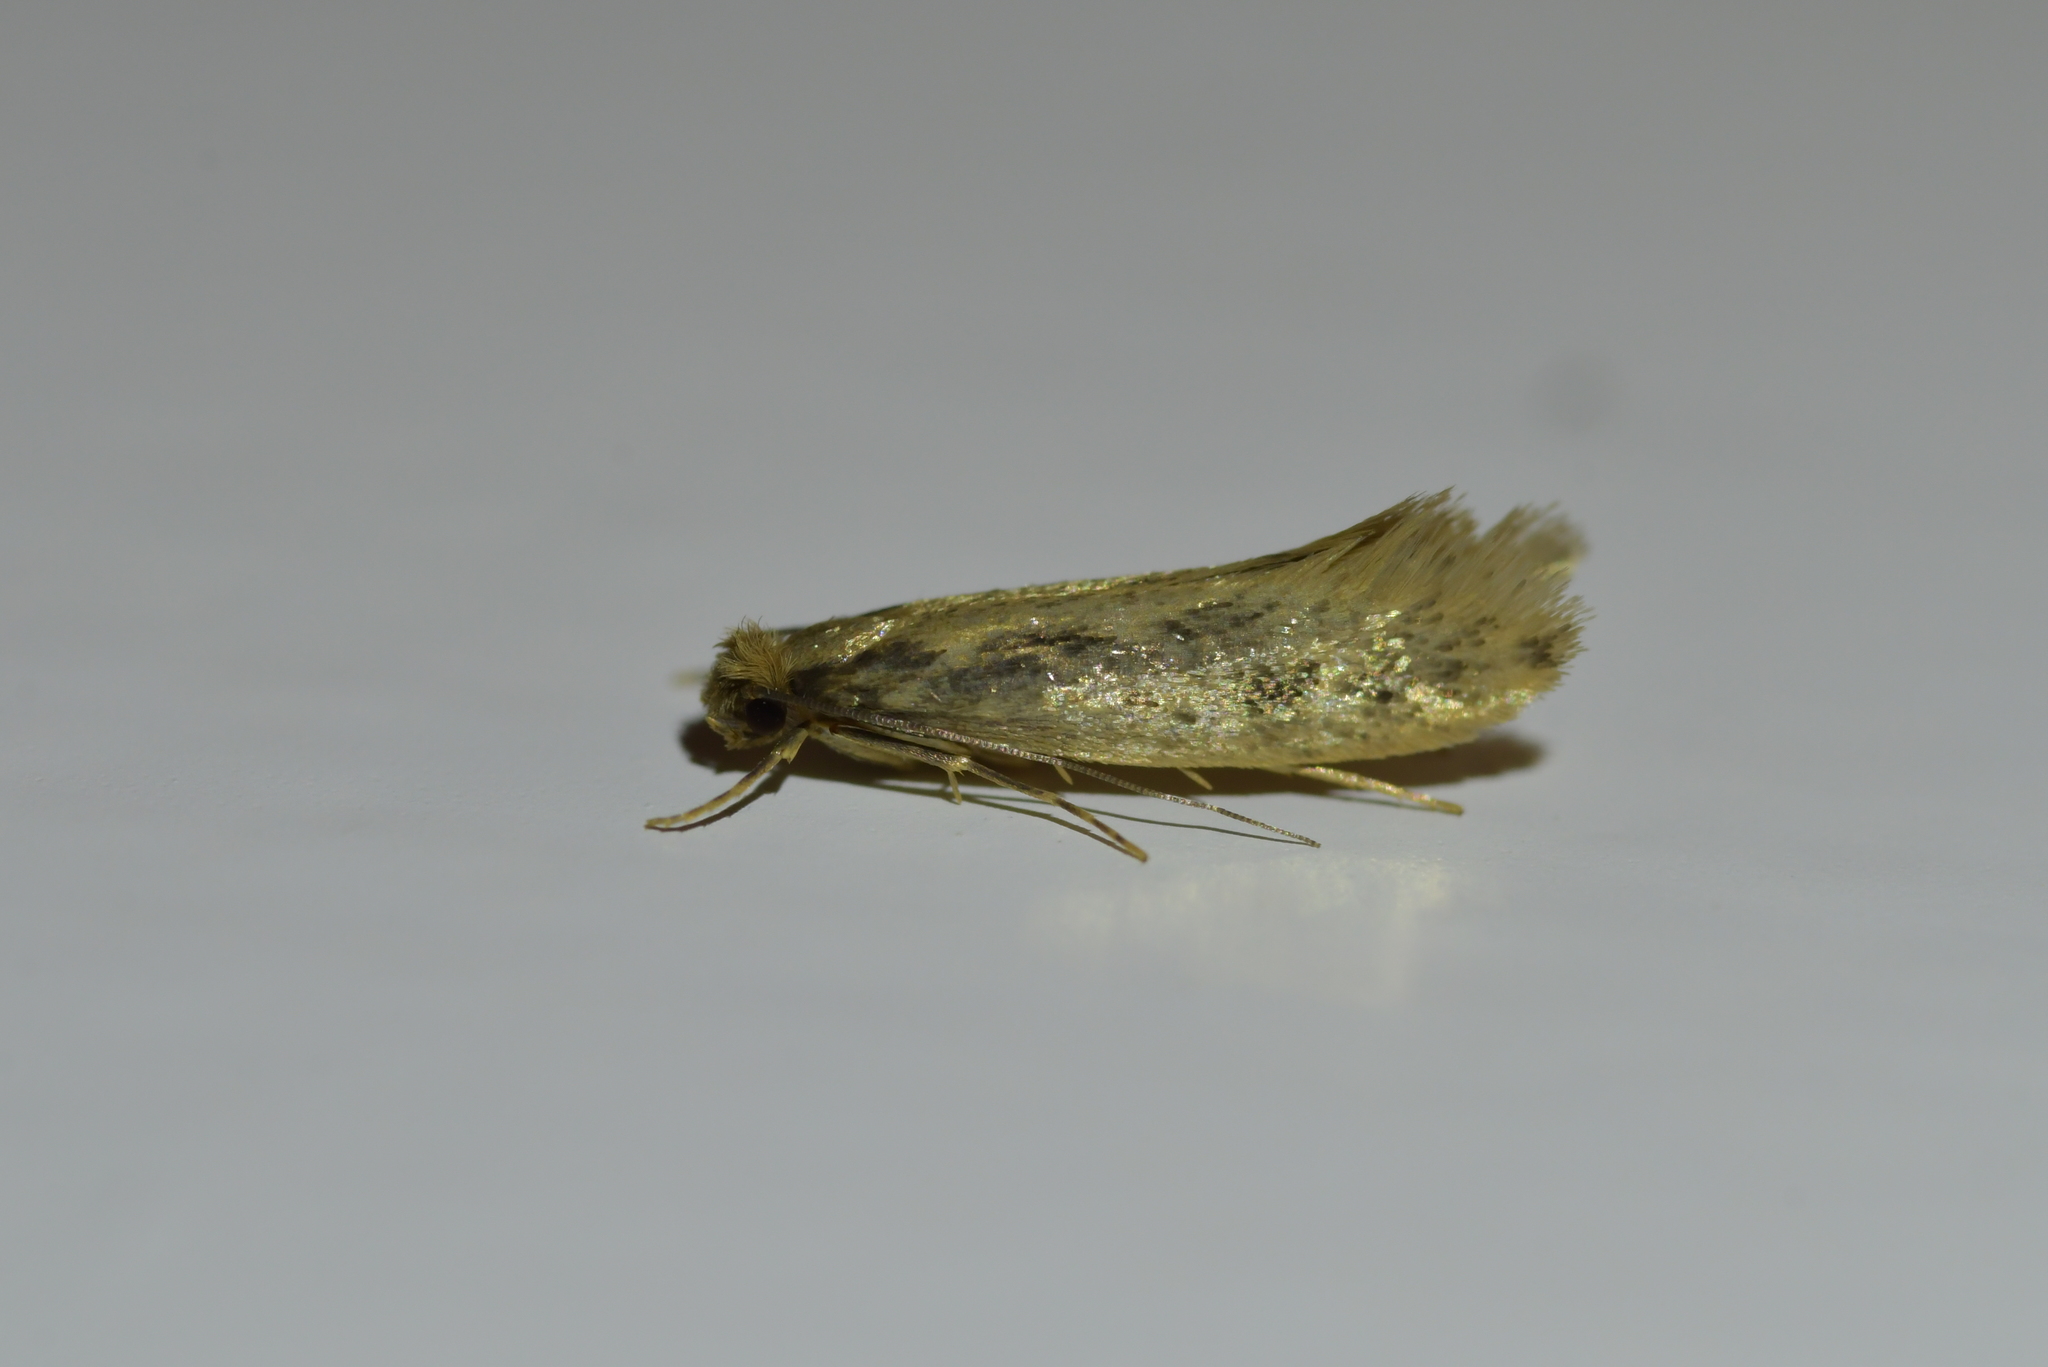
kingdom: Animalia
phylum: Arthropoda
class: Insecta
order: Lepidoptera
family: Tineidae
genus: Tinea
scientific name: Tinea pallescentella
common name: Large pale clothes moth
